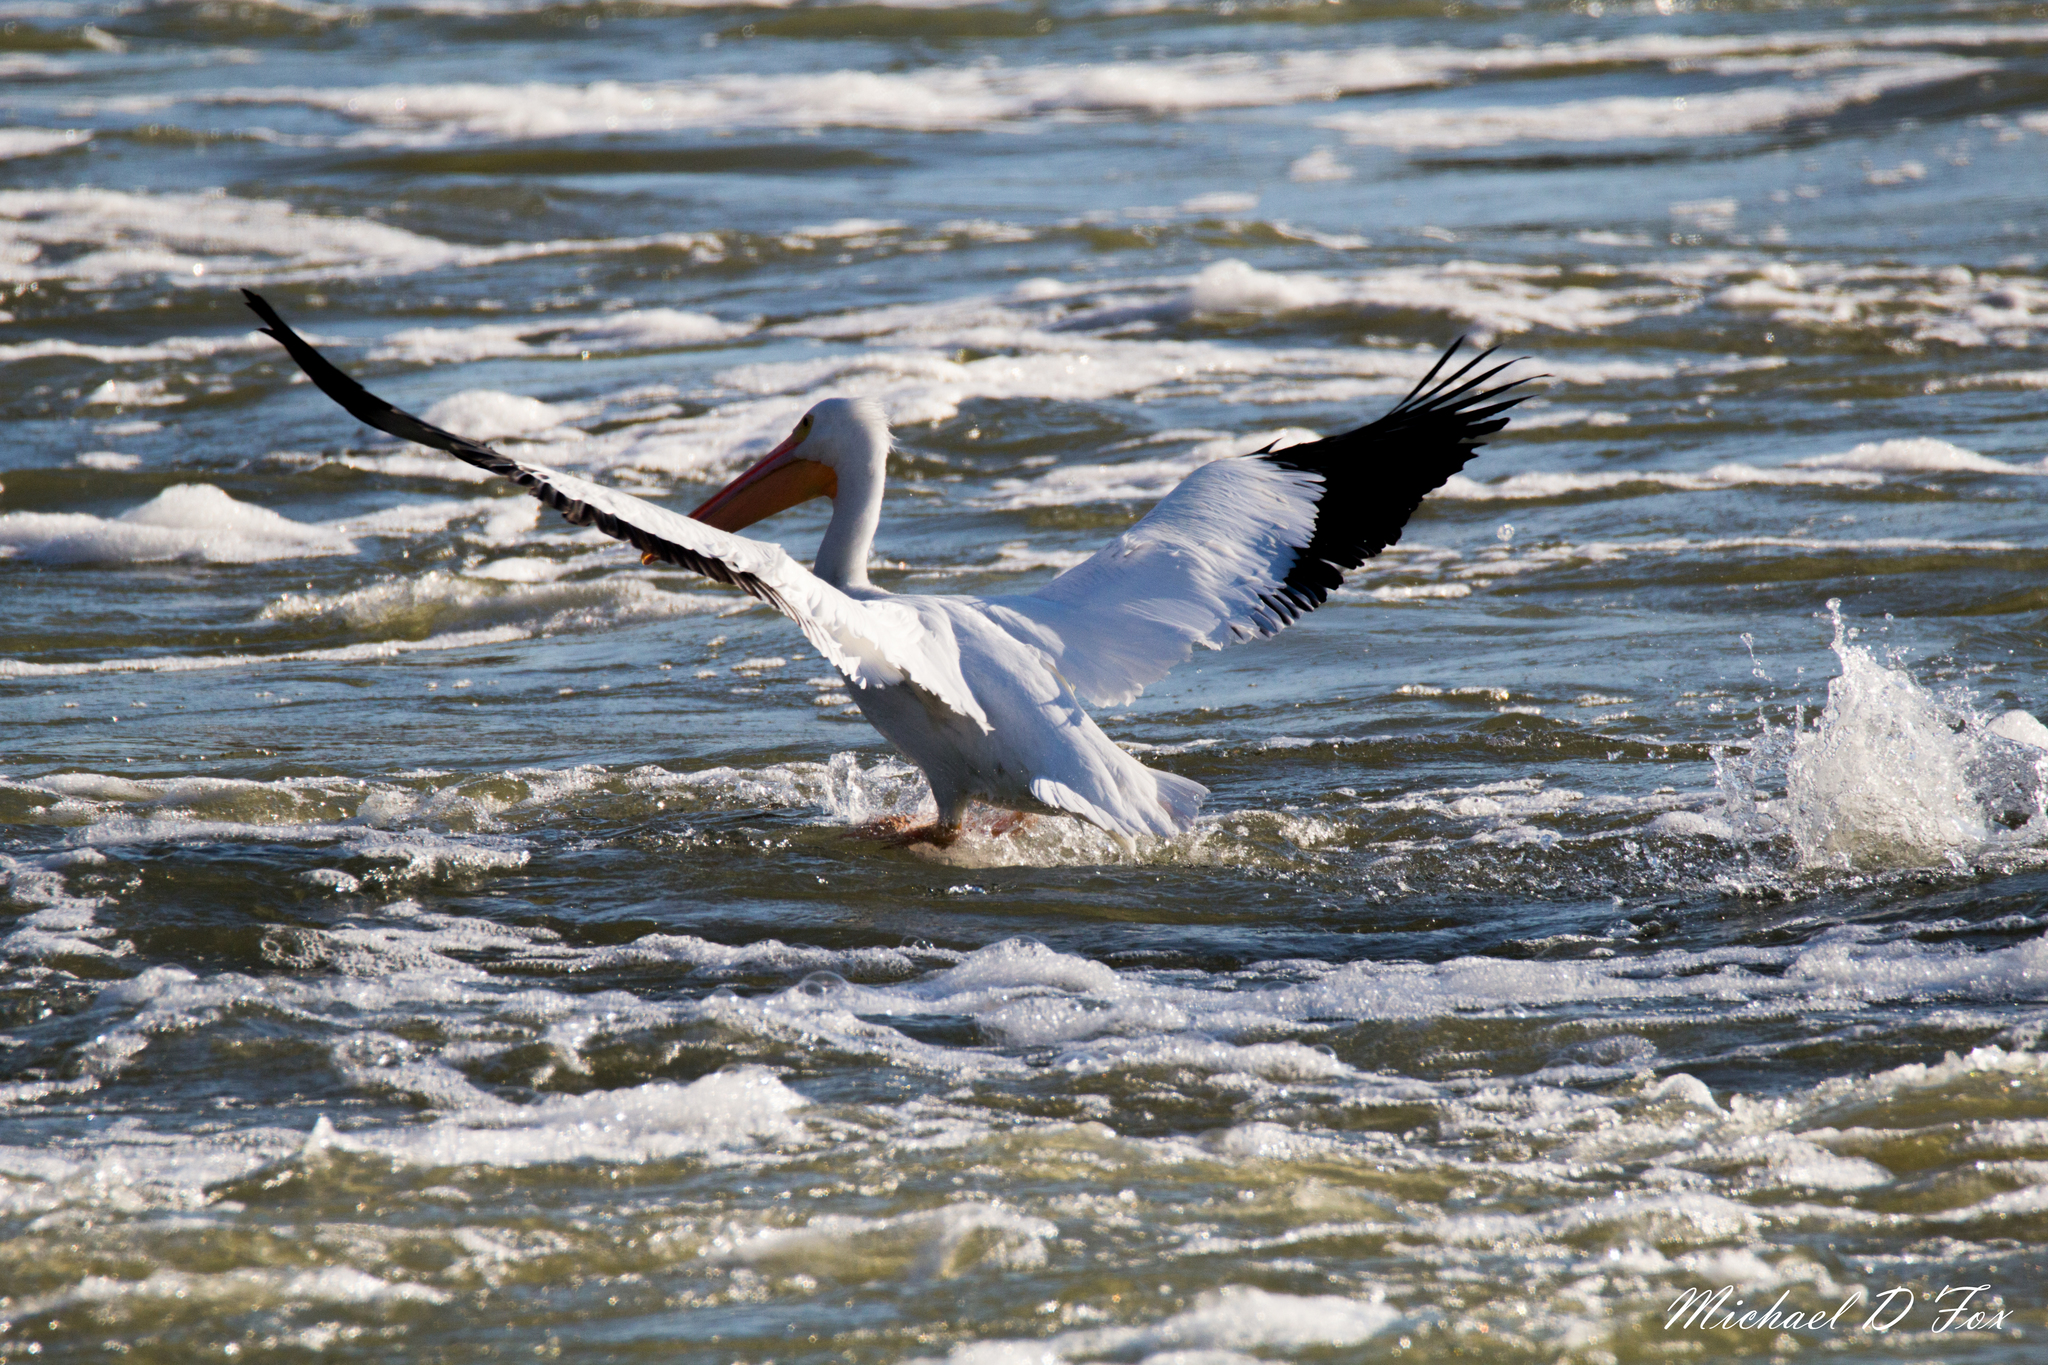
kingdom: Animalia
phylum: Chordata
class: Aves
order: Pelecaniformes
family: Pelecanidae
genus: Pelecanus
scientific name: Pelecanus erythrorhynchos
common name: American white pelican
